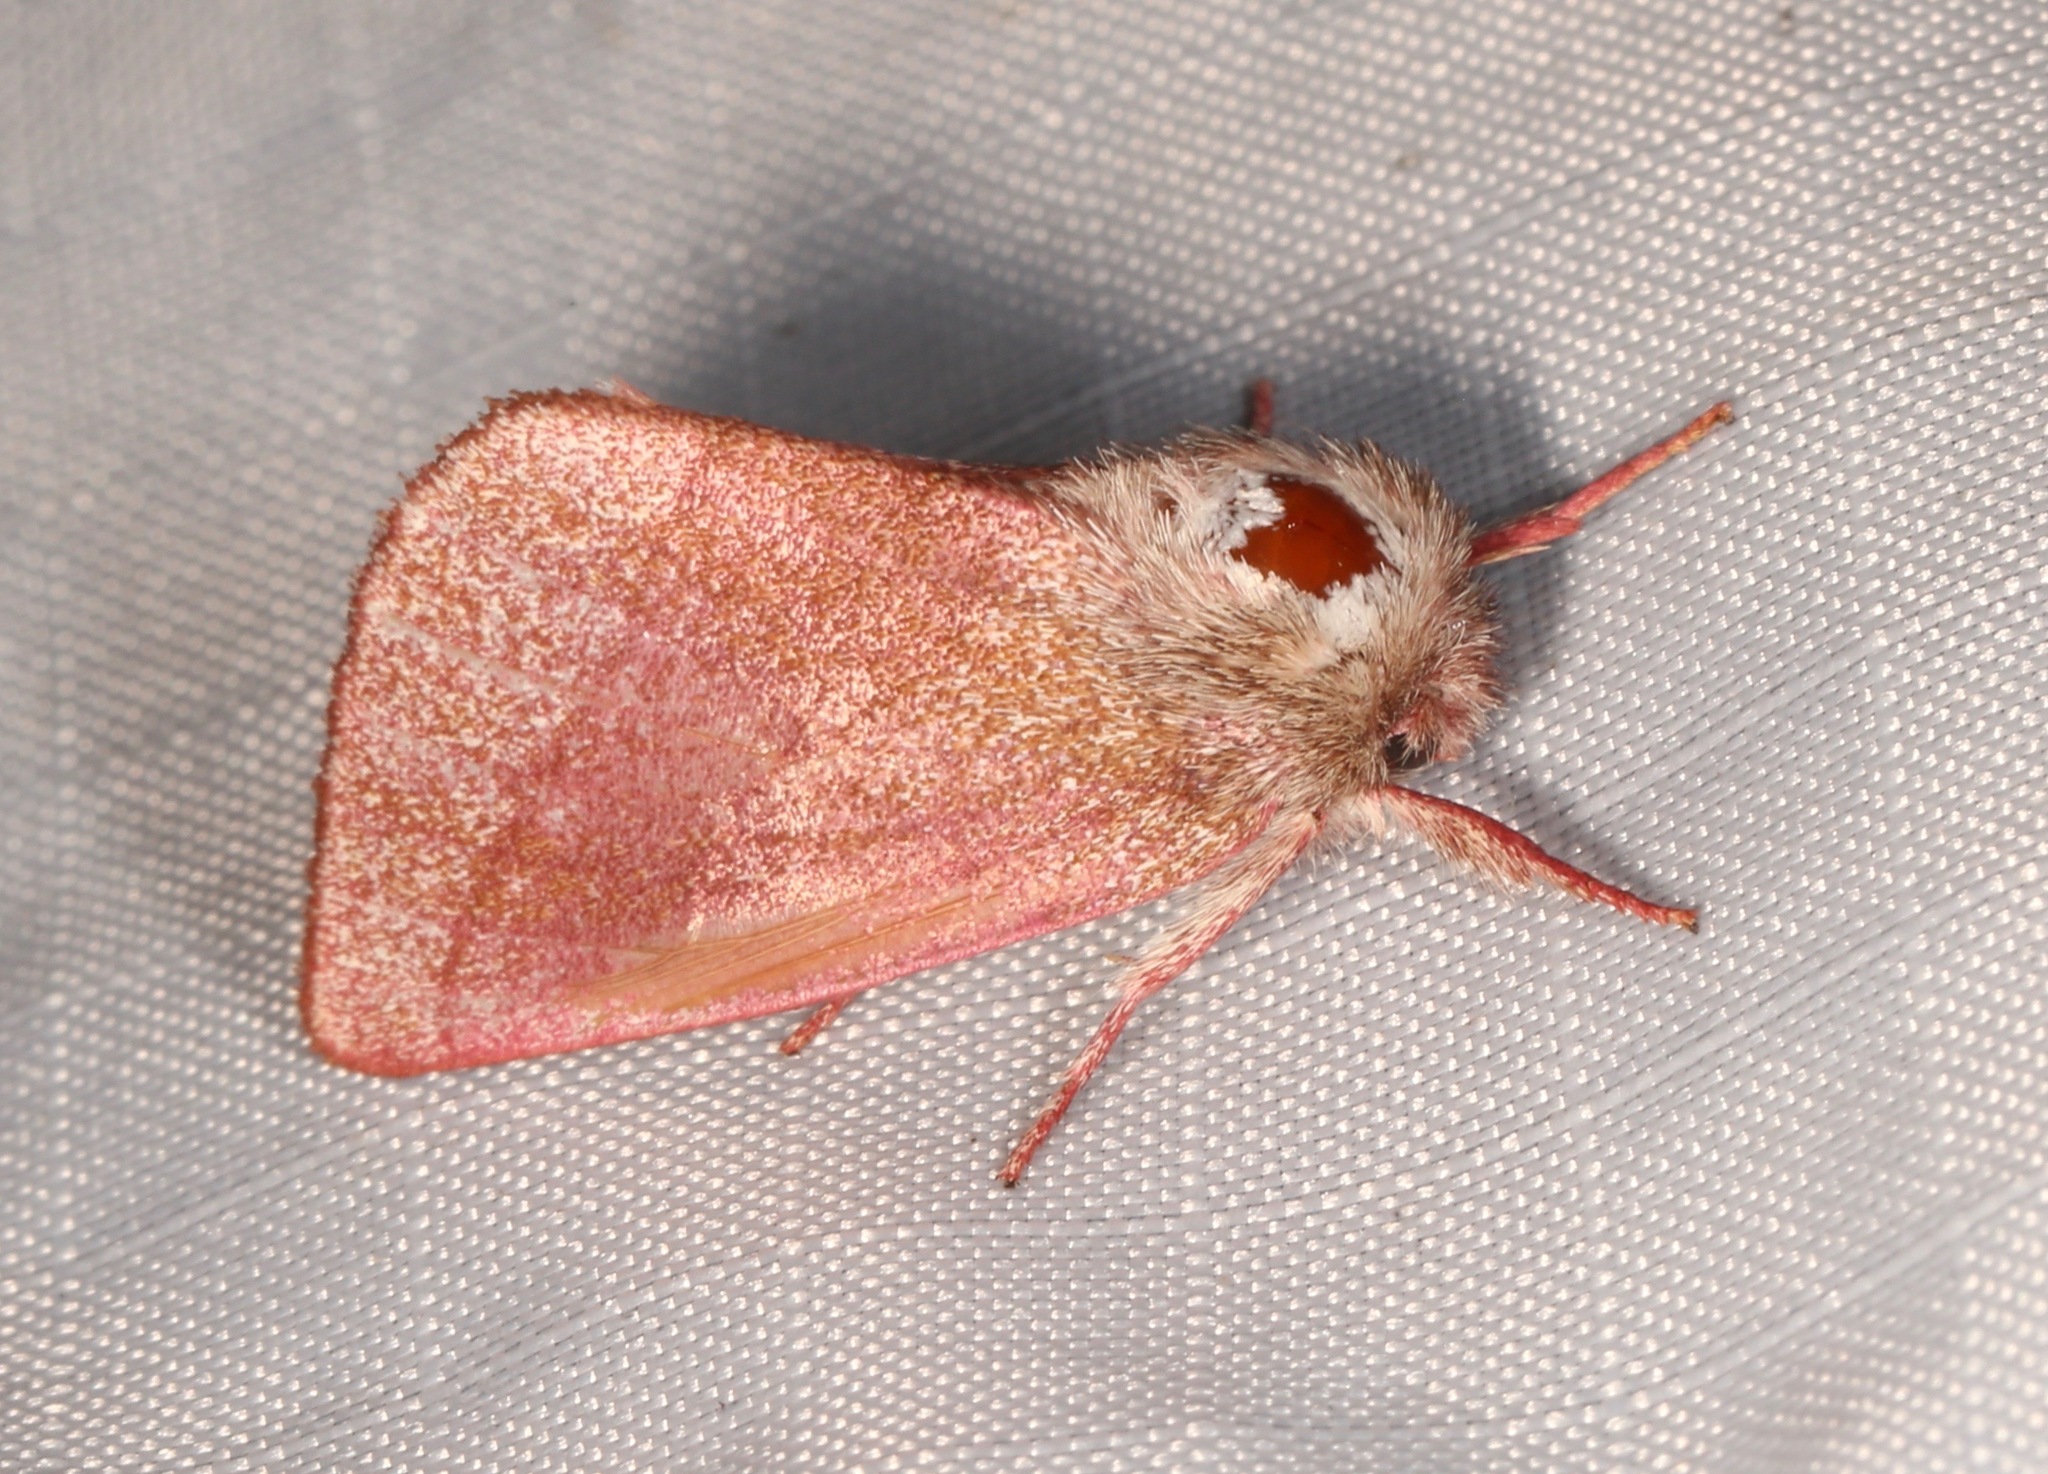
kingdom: Animalia
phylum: Arthropoda
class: Insecta
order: Lepidoptera
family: Notodontidae
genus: Hyparpax
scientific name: Hyparpax perophoroides
